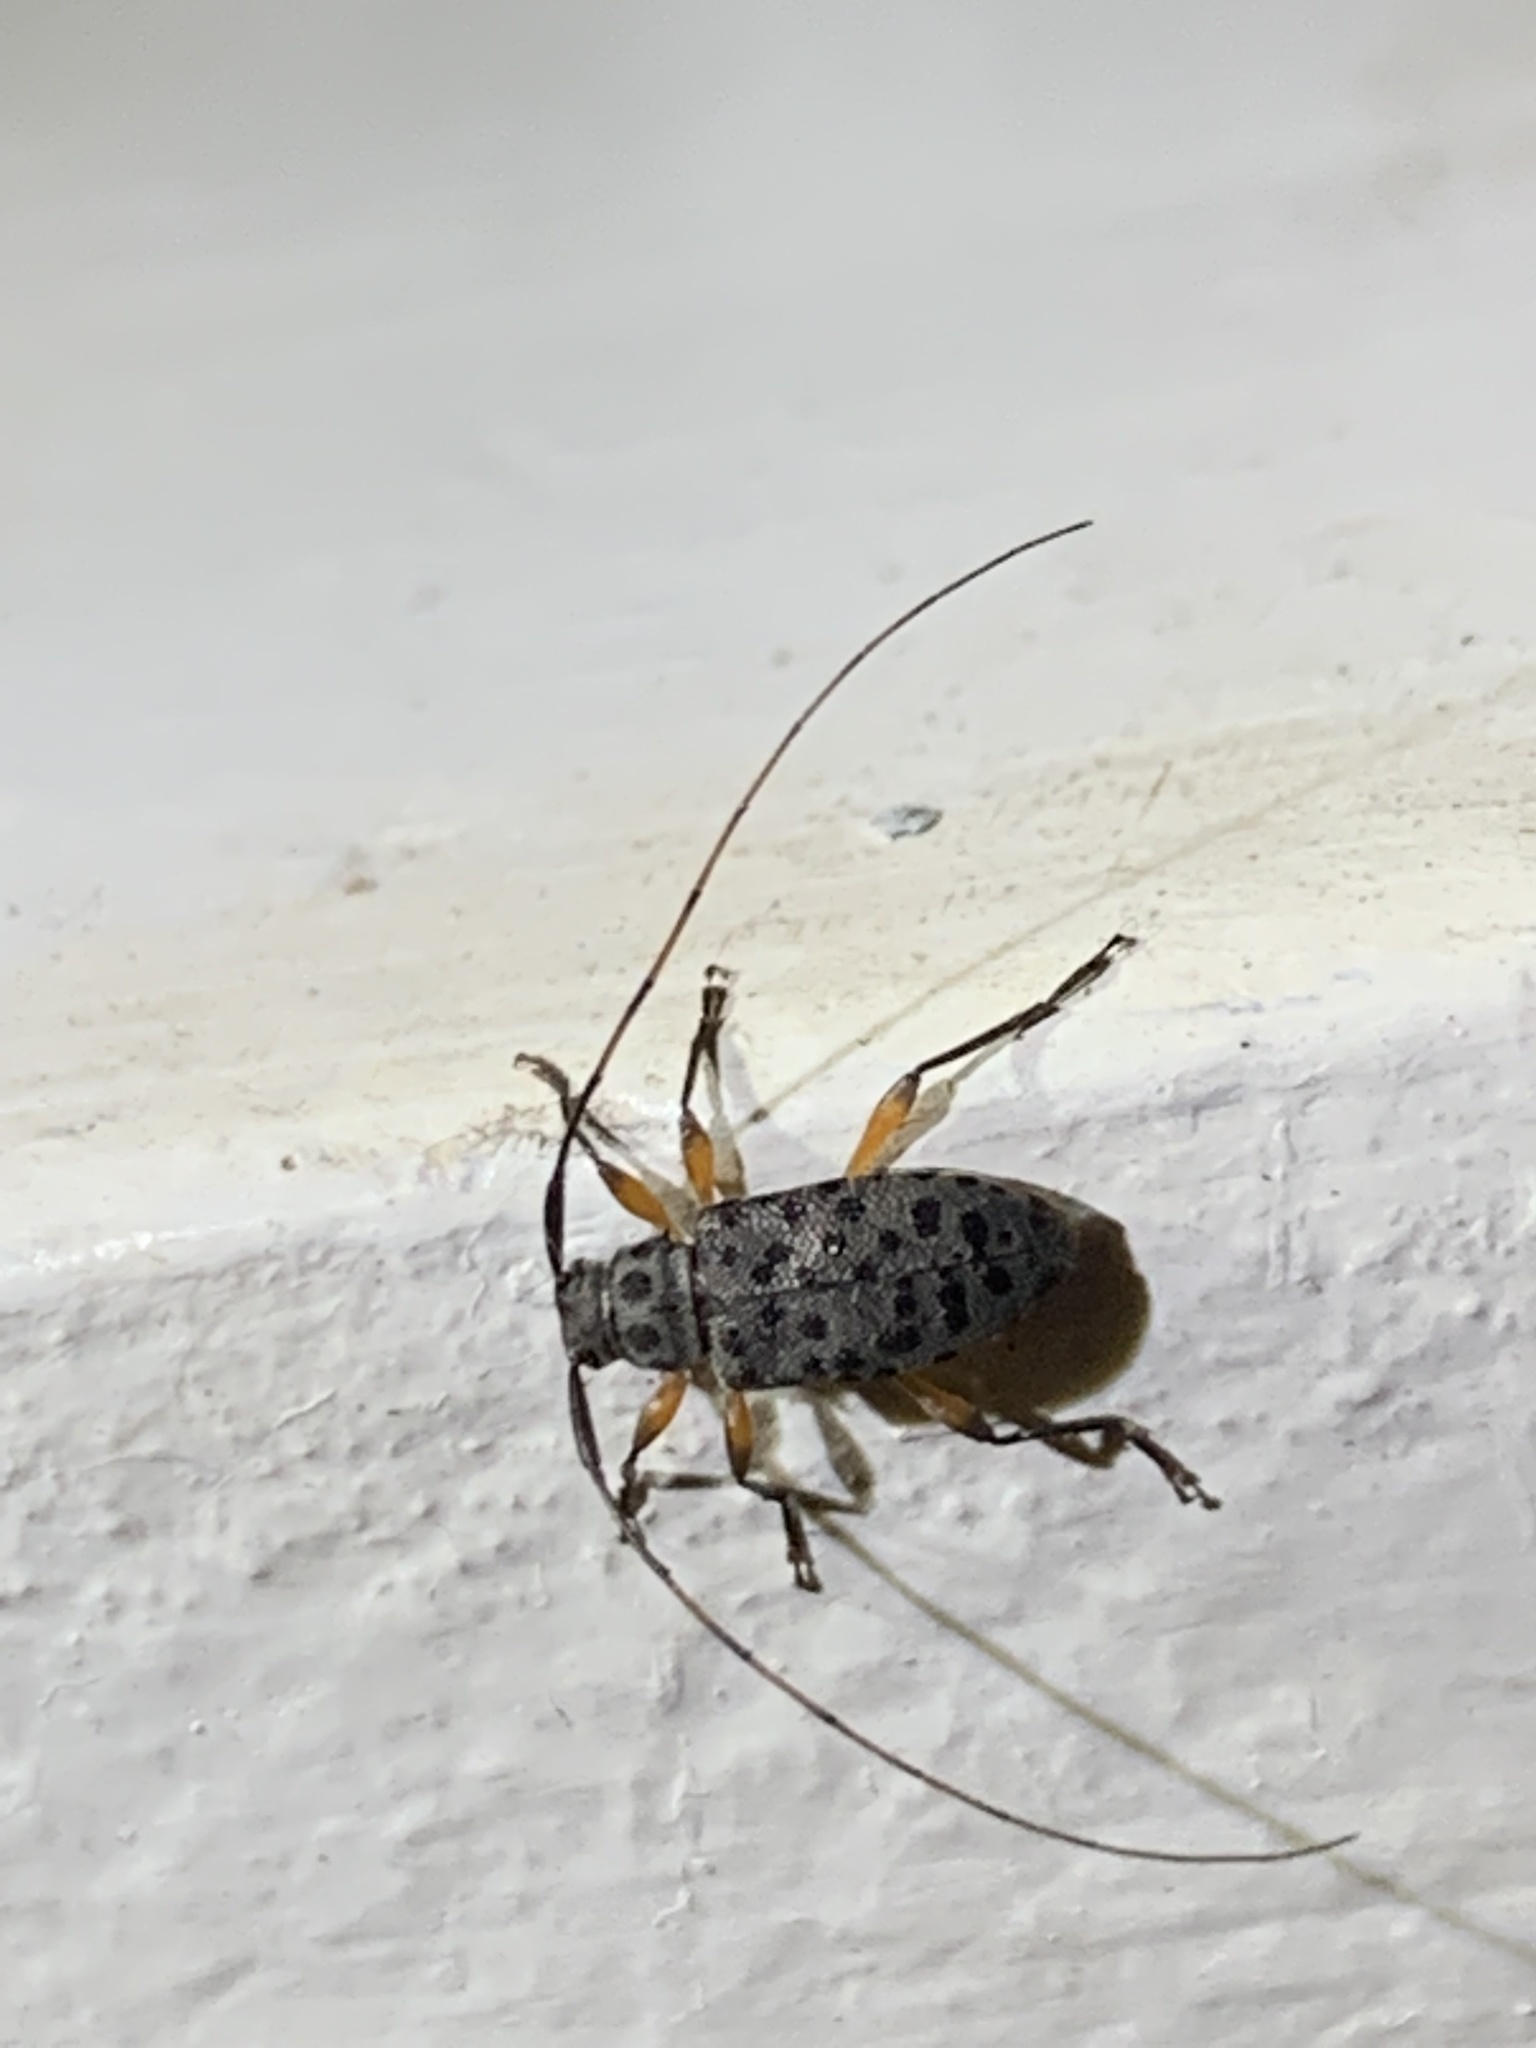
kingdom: Animalia
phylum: Arthropoda
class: Insecta
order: Coleoptera
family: Cerambycidae
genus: Hyperplatys
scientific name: Hyperplatys aspersa
